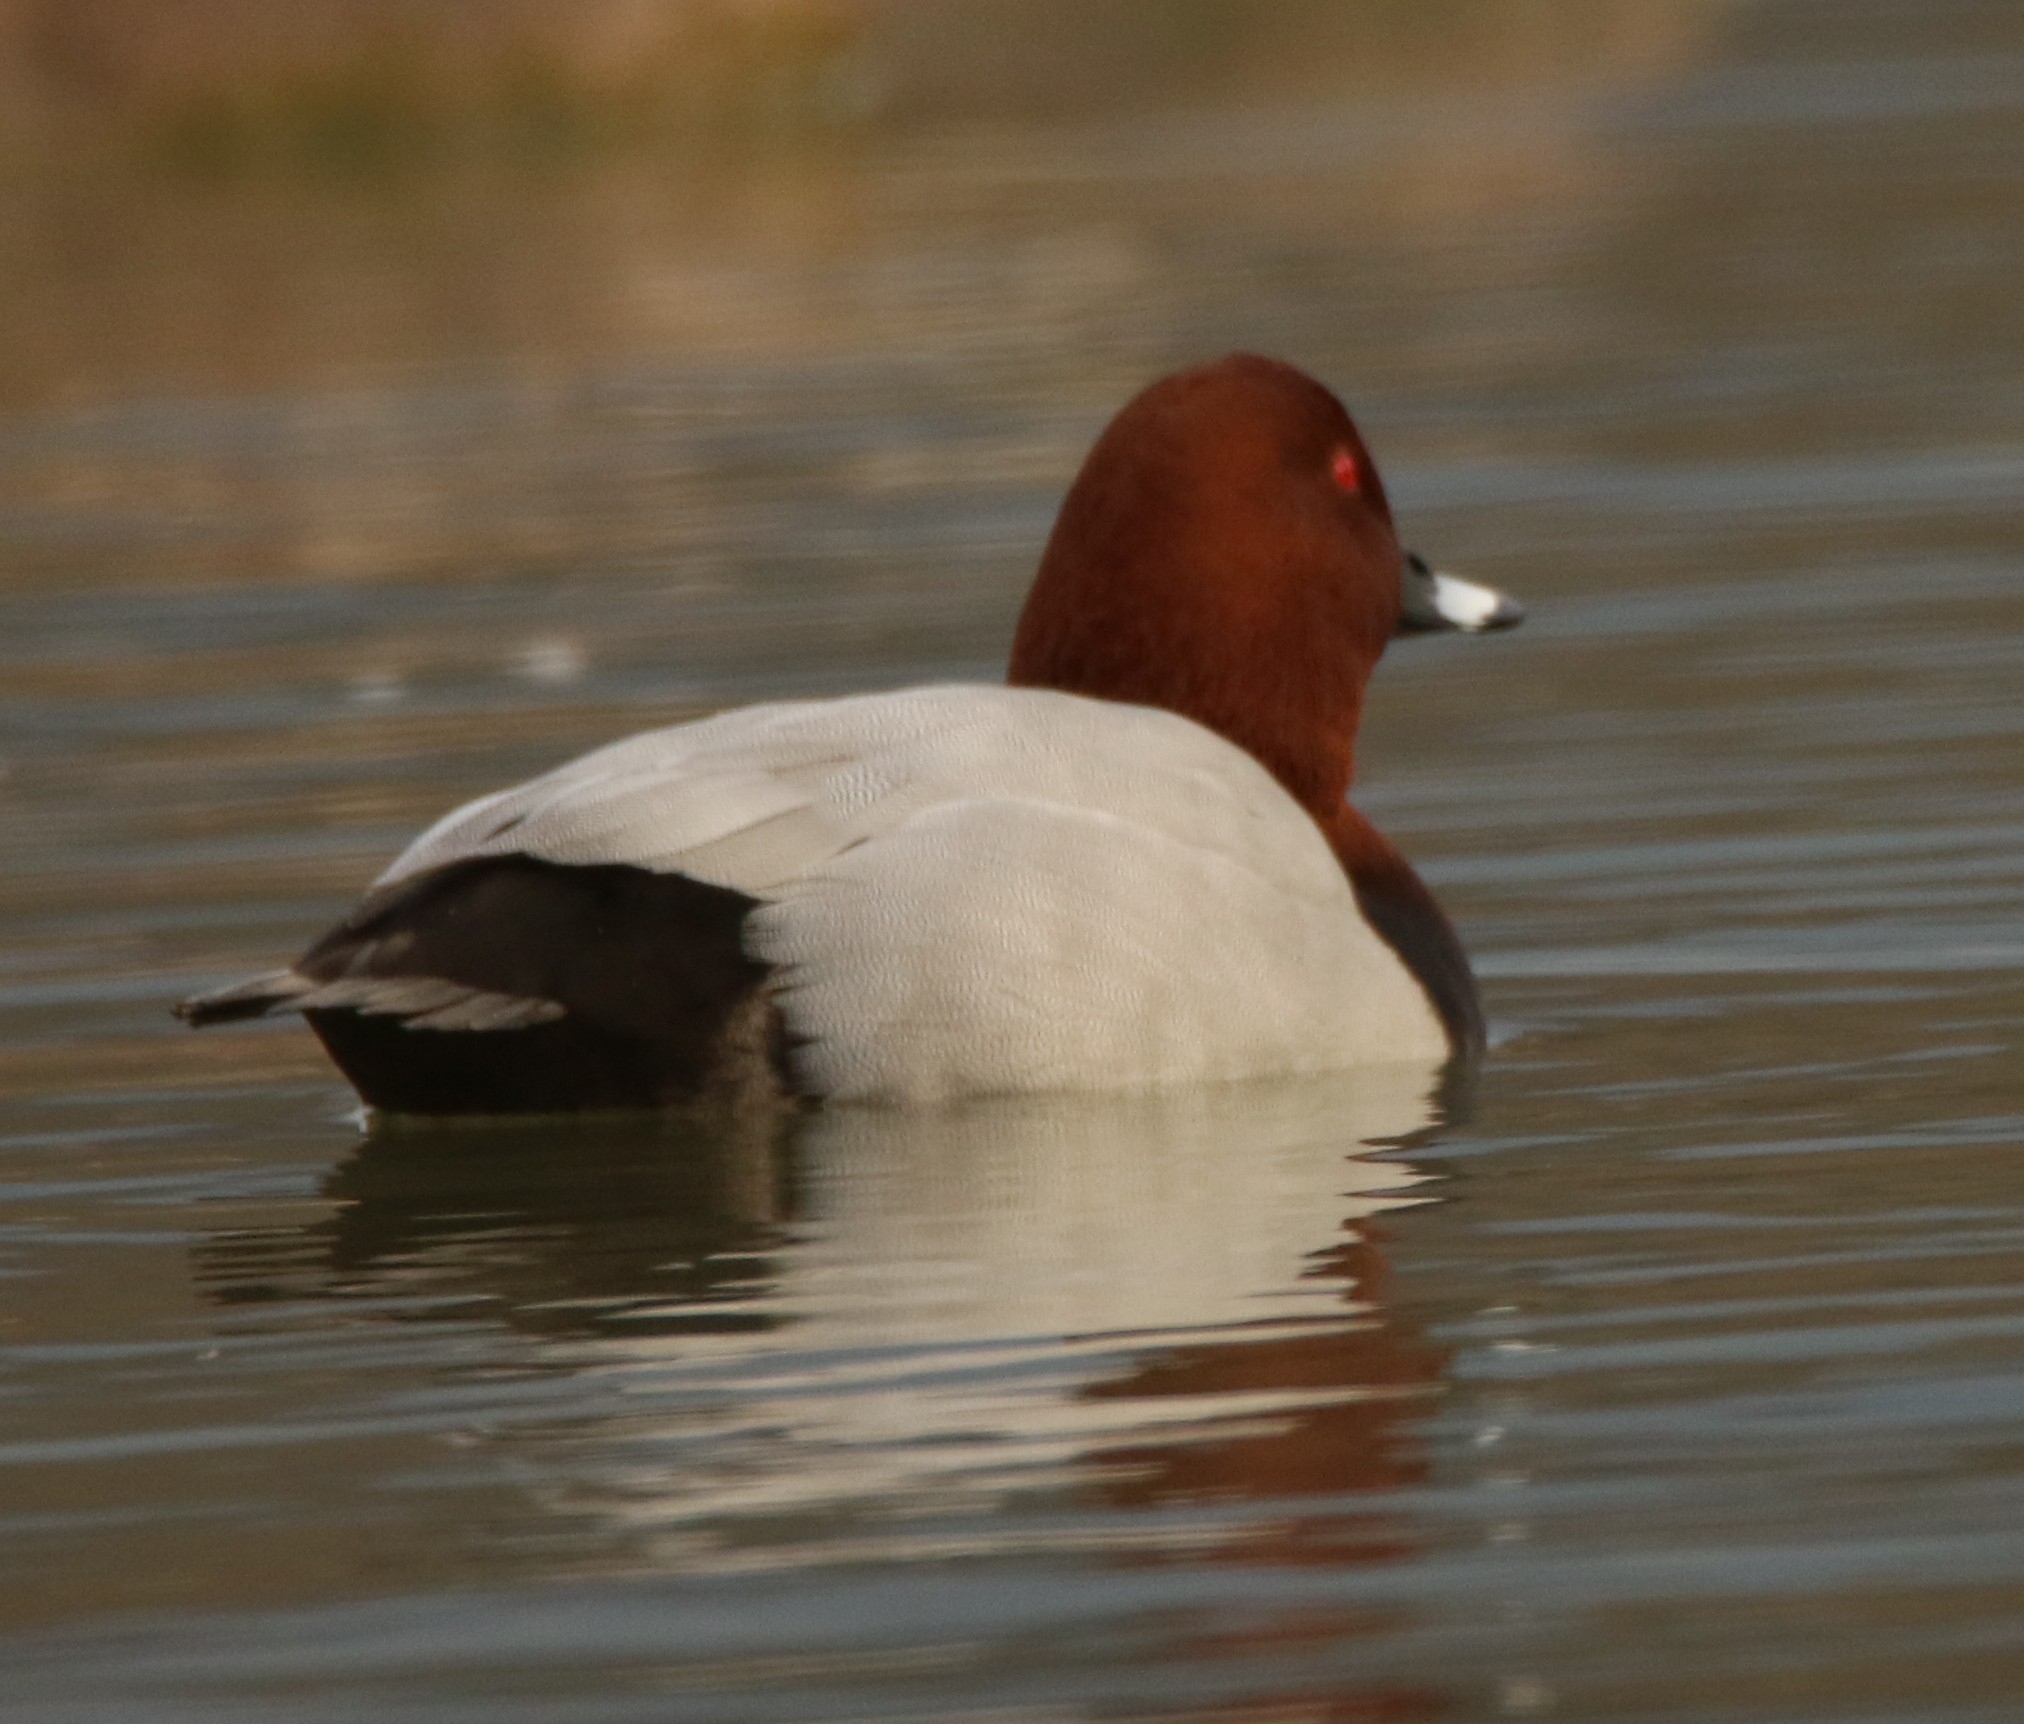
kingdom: Animalia
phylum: Chordata
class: Aves
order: Anseriformes
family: Anatidae
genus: Aythya
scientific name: Aythya ferina
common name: Common pochard
